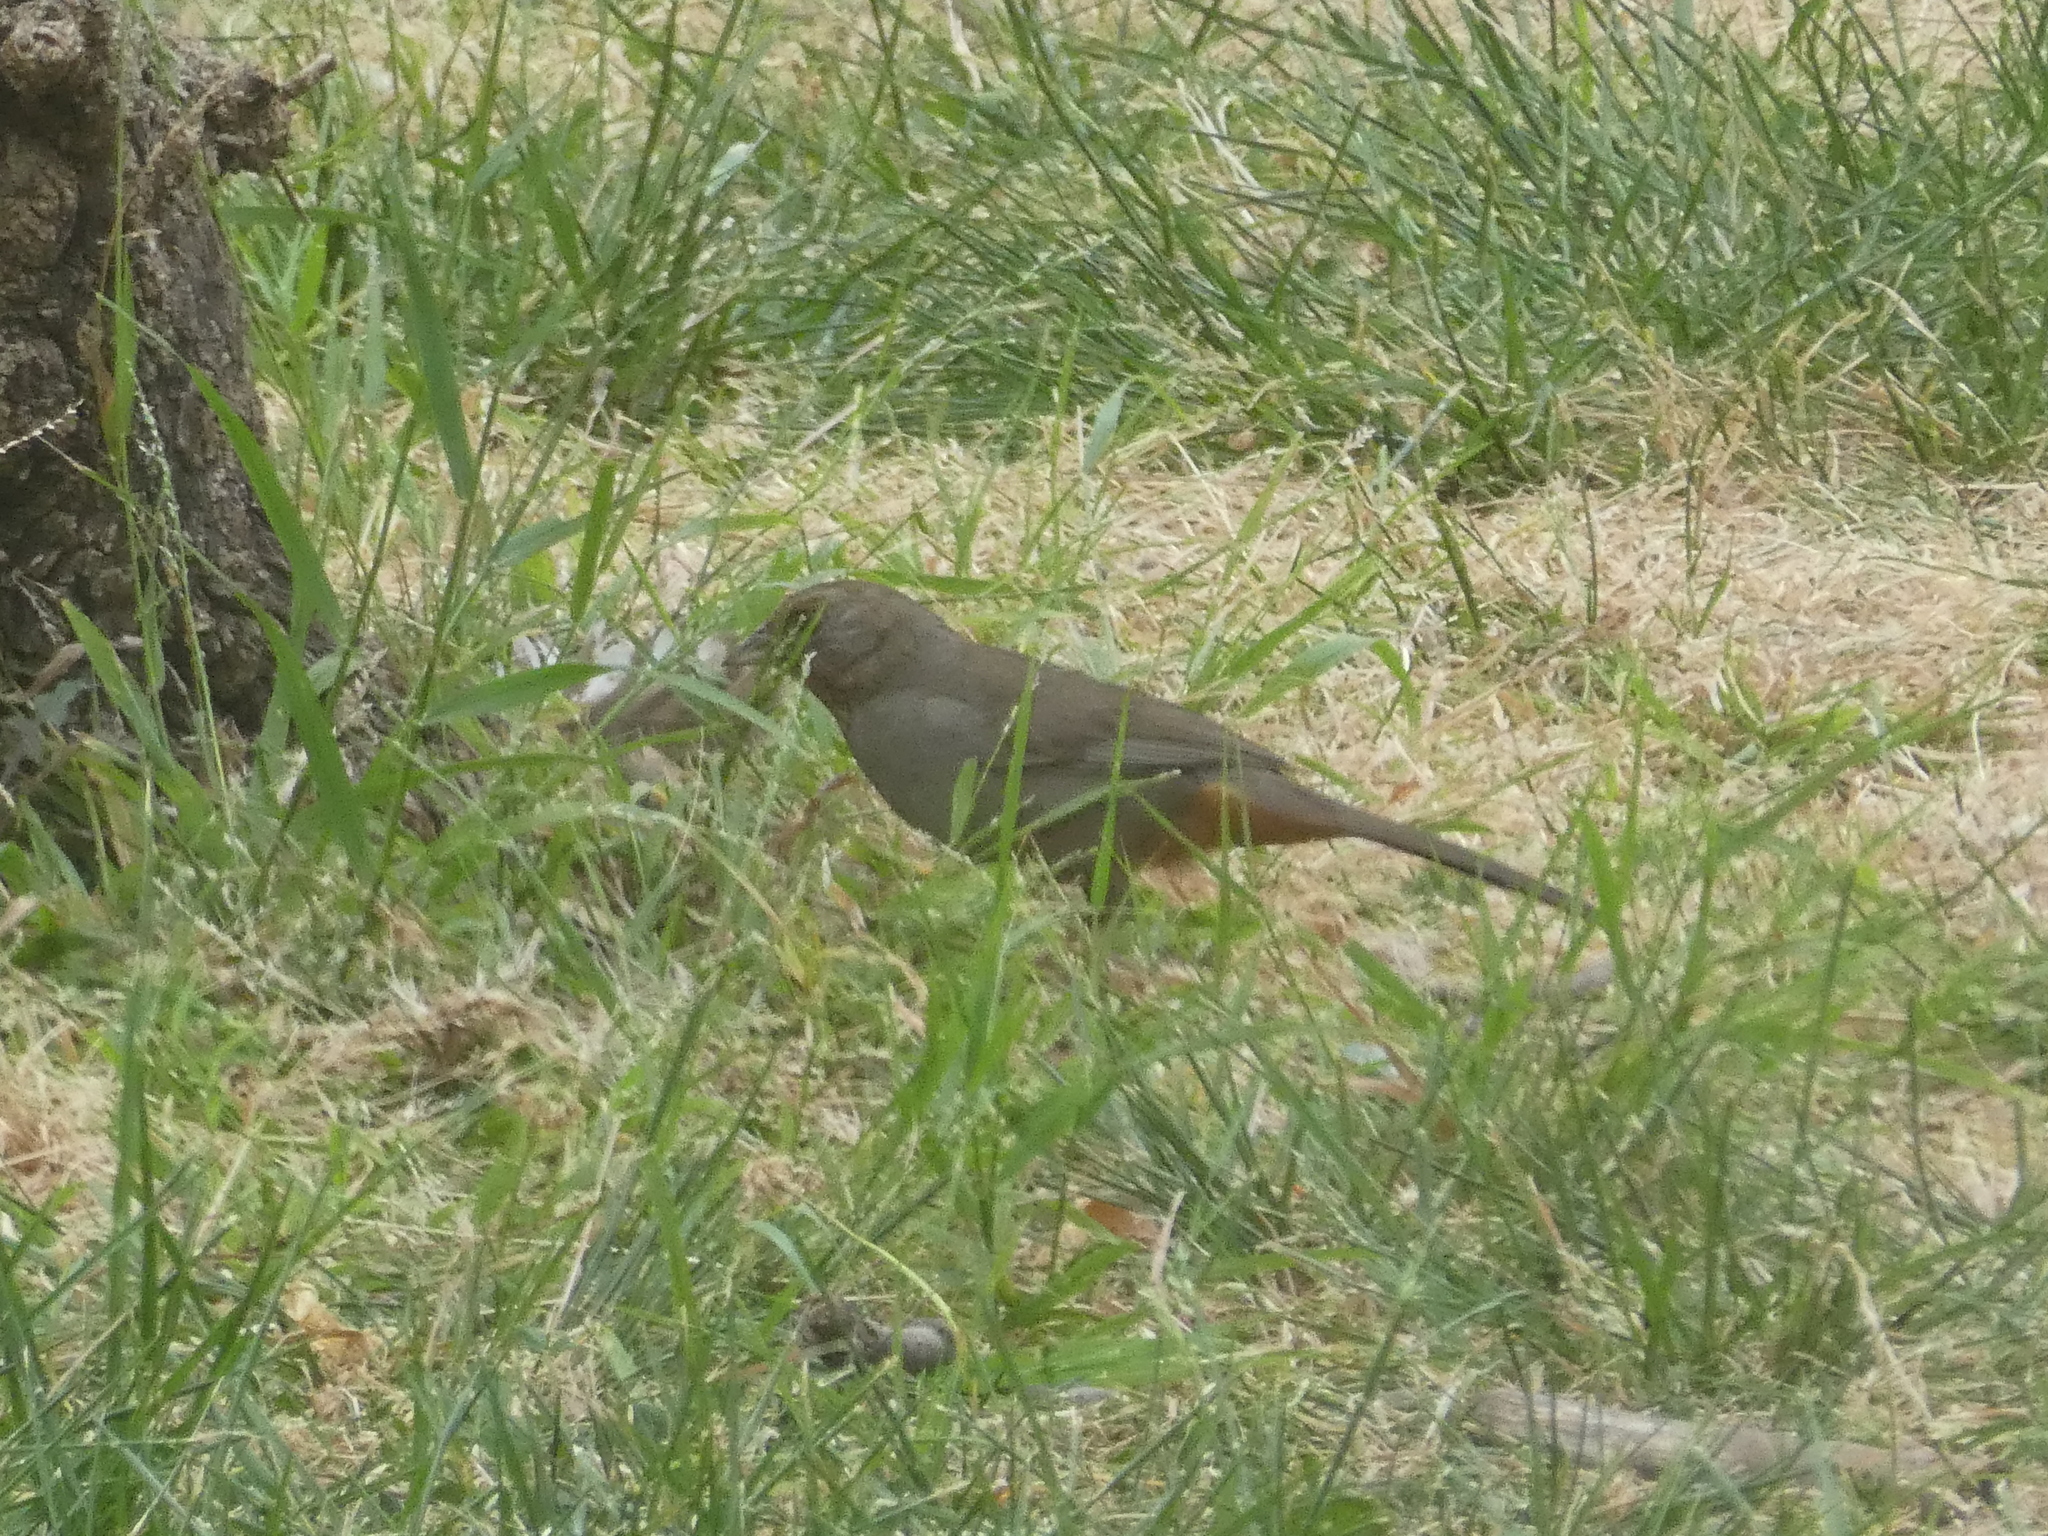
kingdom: Animalia
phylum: Chordata
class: Aves
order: Passeriformes
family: Passerellidae
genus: Melozone
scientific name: Melozone crissalis
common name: California towhee
